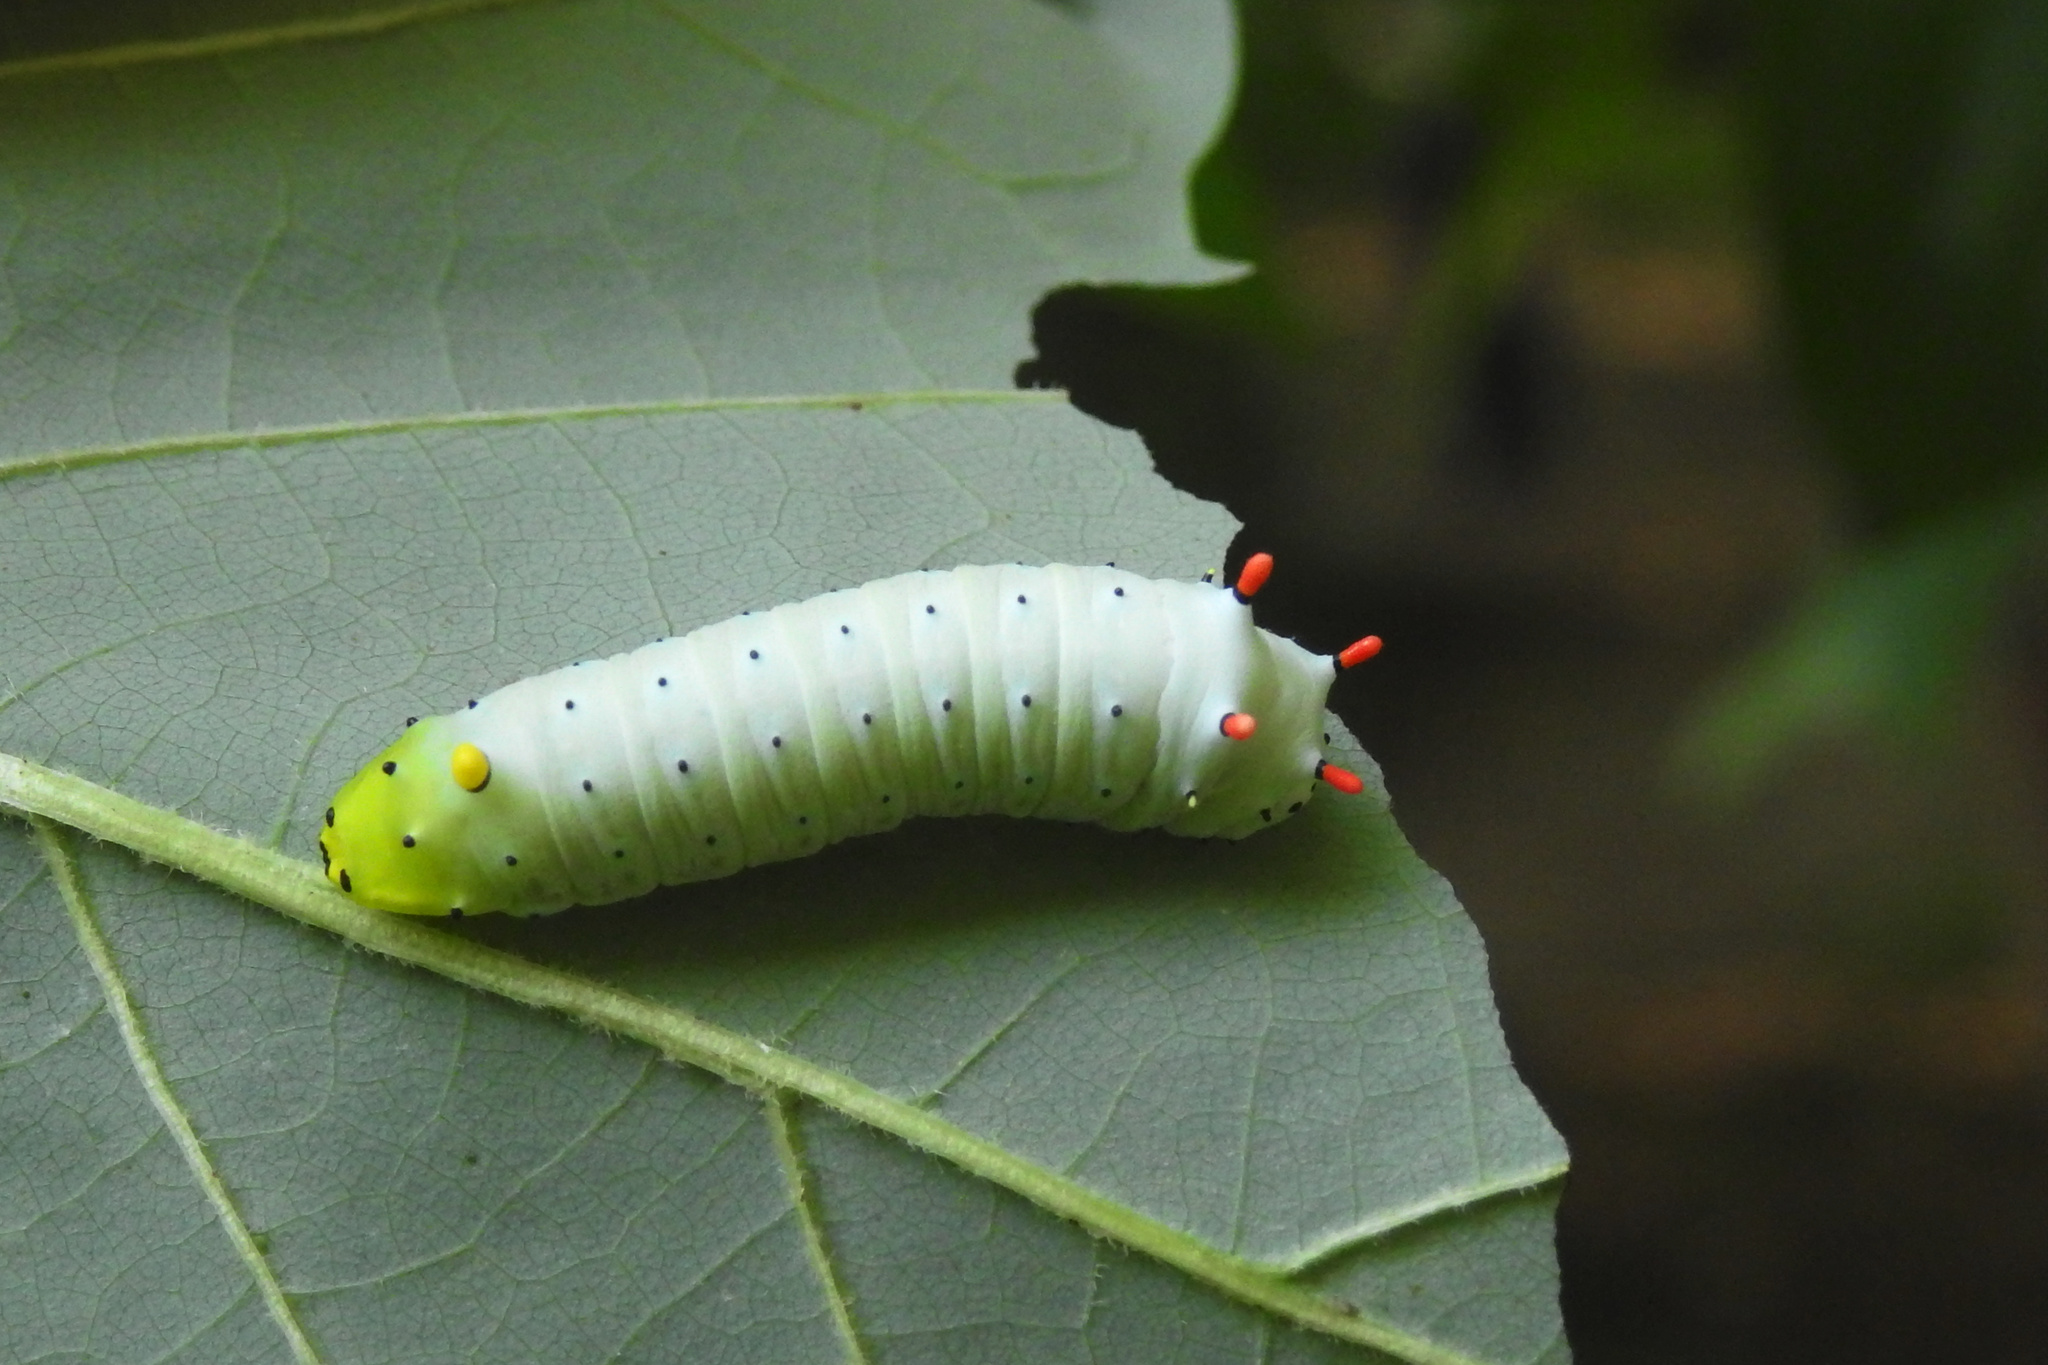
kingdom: Animalia
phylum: Arthropoda
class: Insecta
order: Lepidoptera
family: Saturniidae
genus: Callosamia
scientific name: Callosamia promethea
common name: Promethea silkmoth
